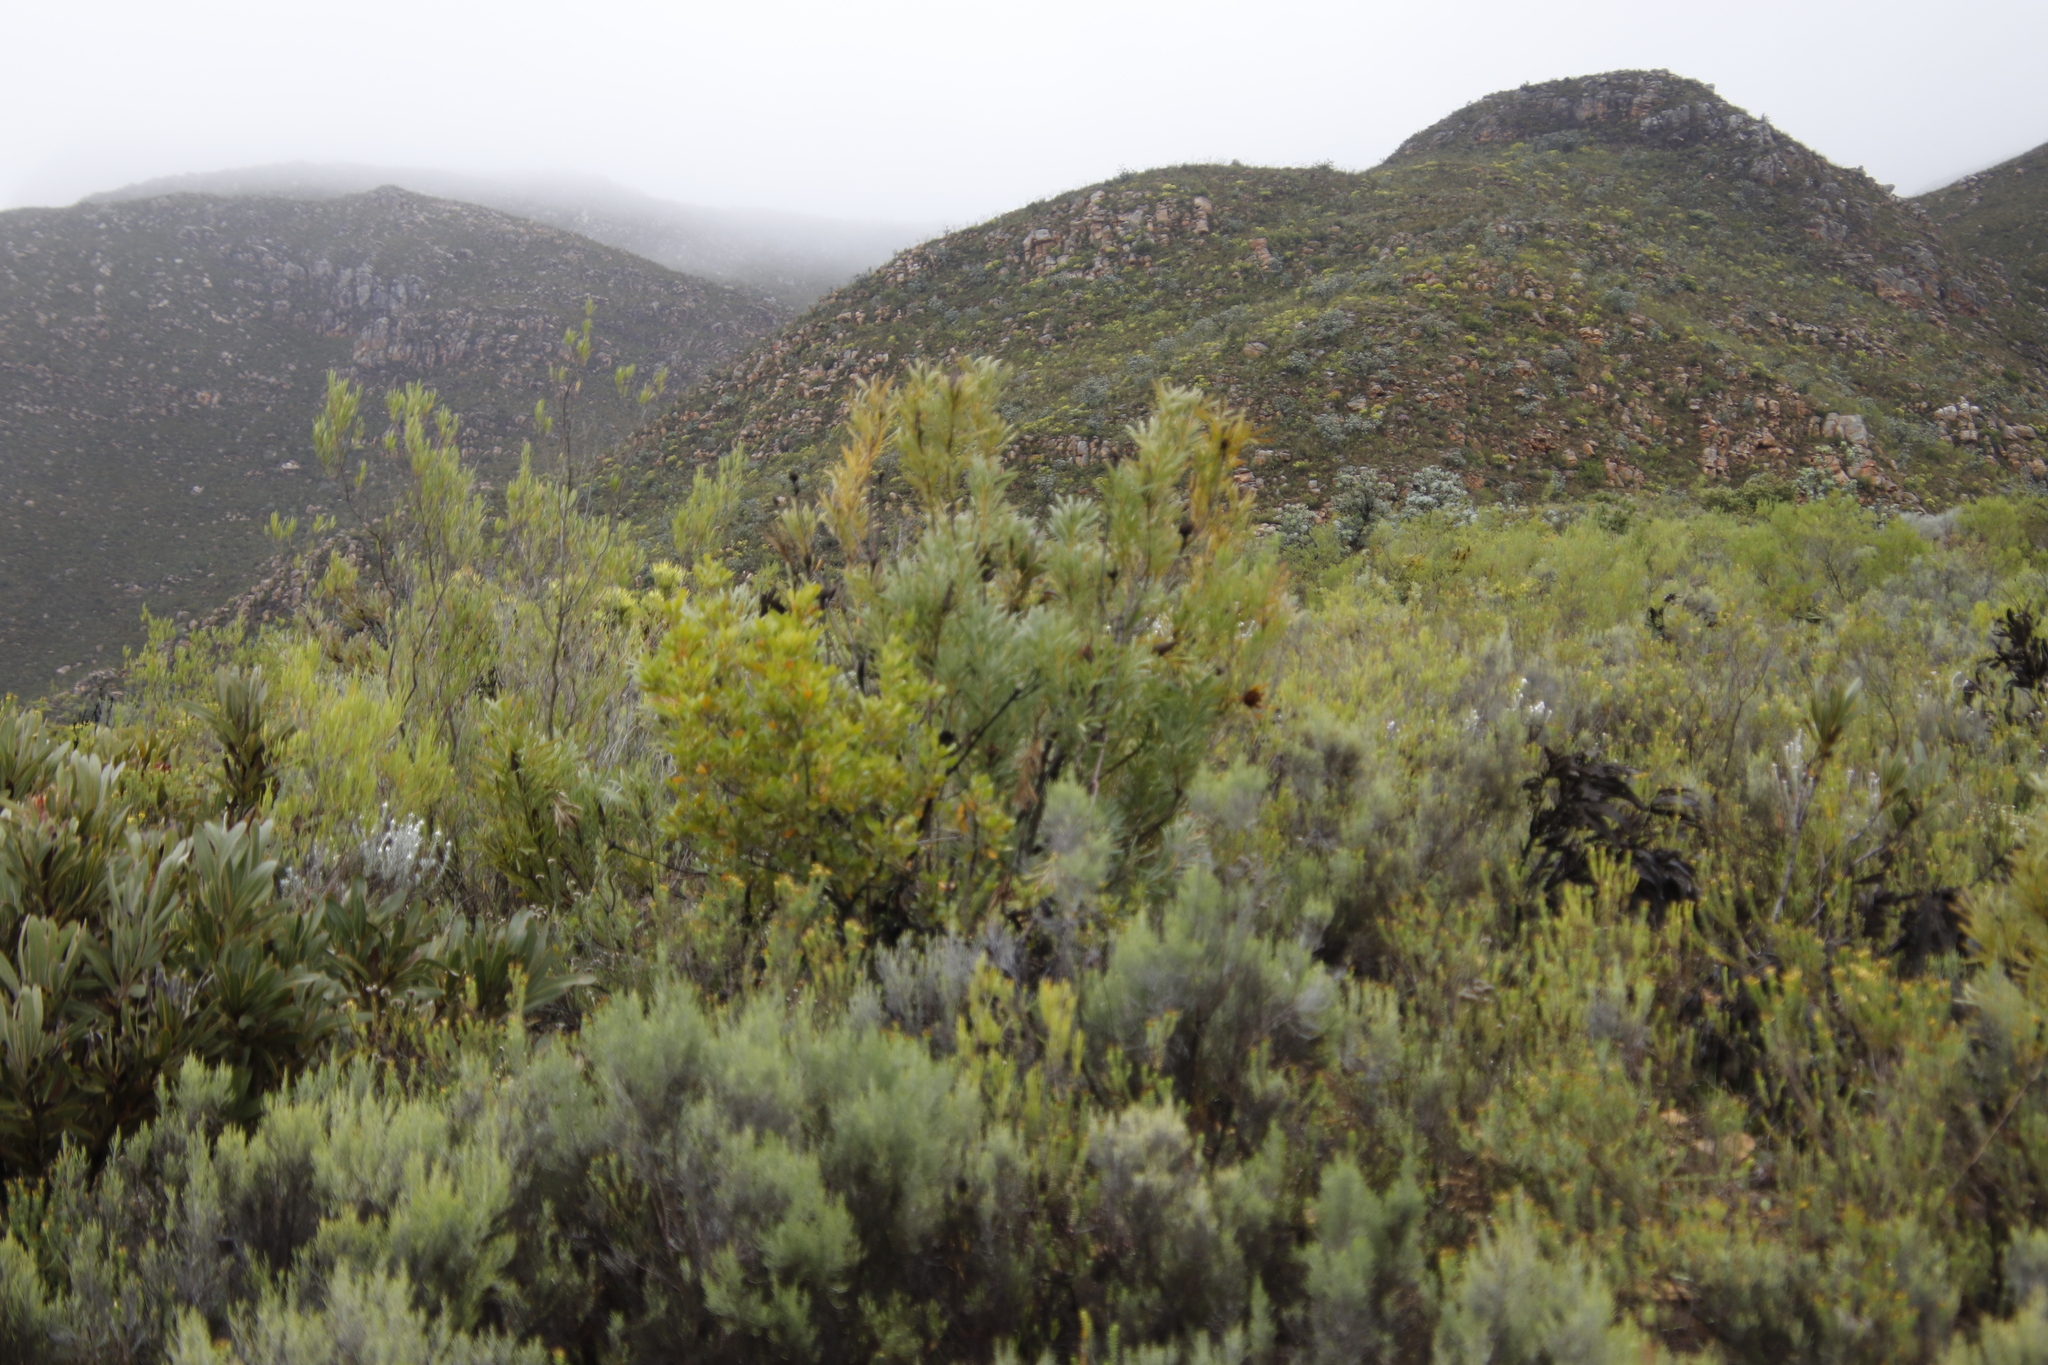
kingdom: Plantae
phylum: Tracheophyta
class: Magnoliopsida
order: Proteales
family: Proteaceae
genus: Protea
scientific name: Protea repens
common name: Sugarbush
